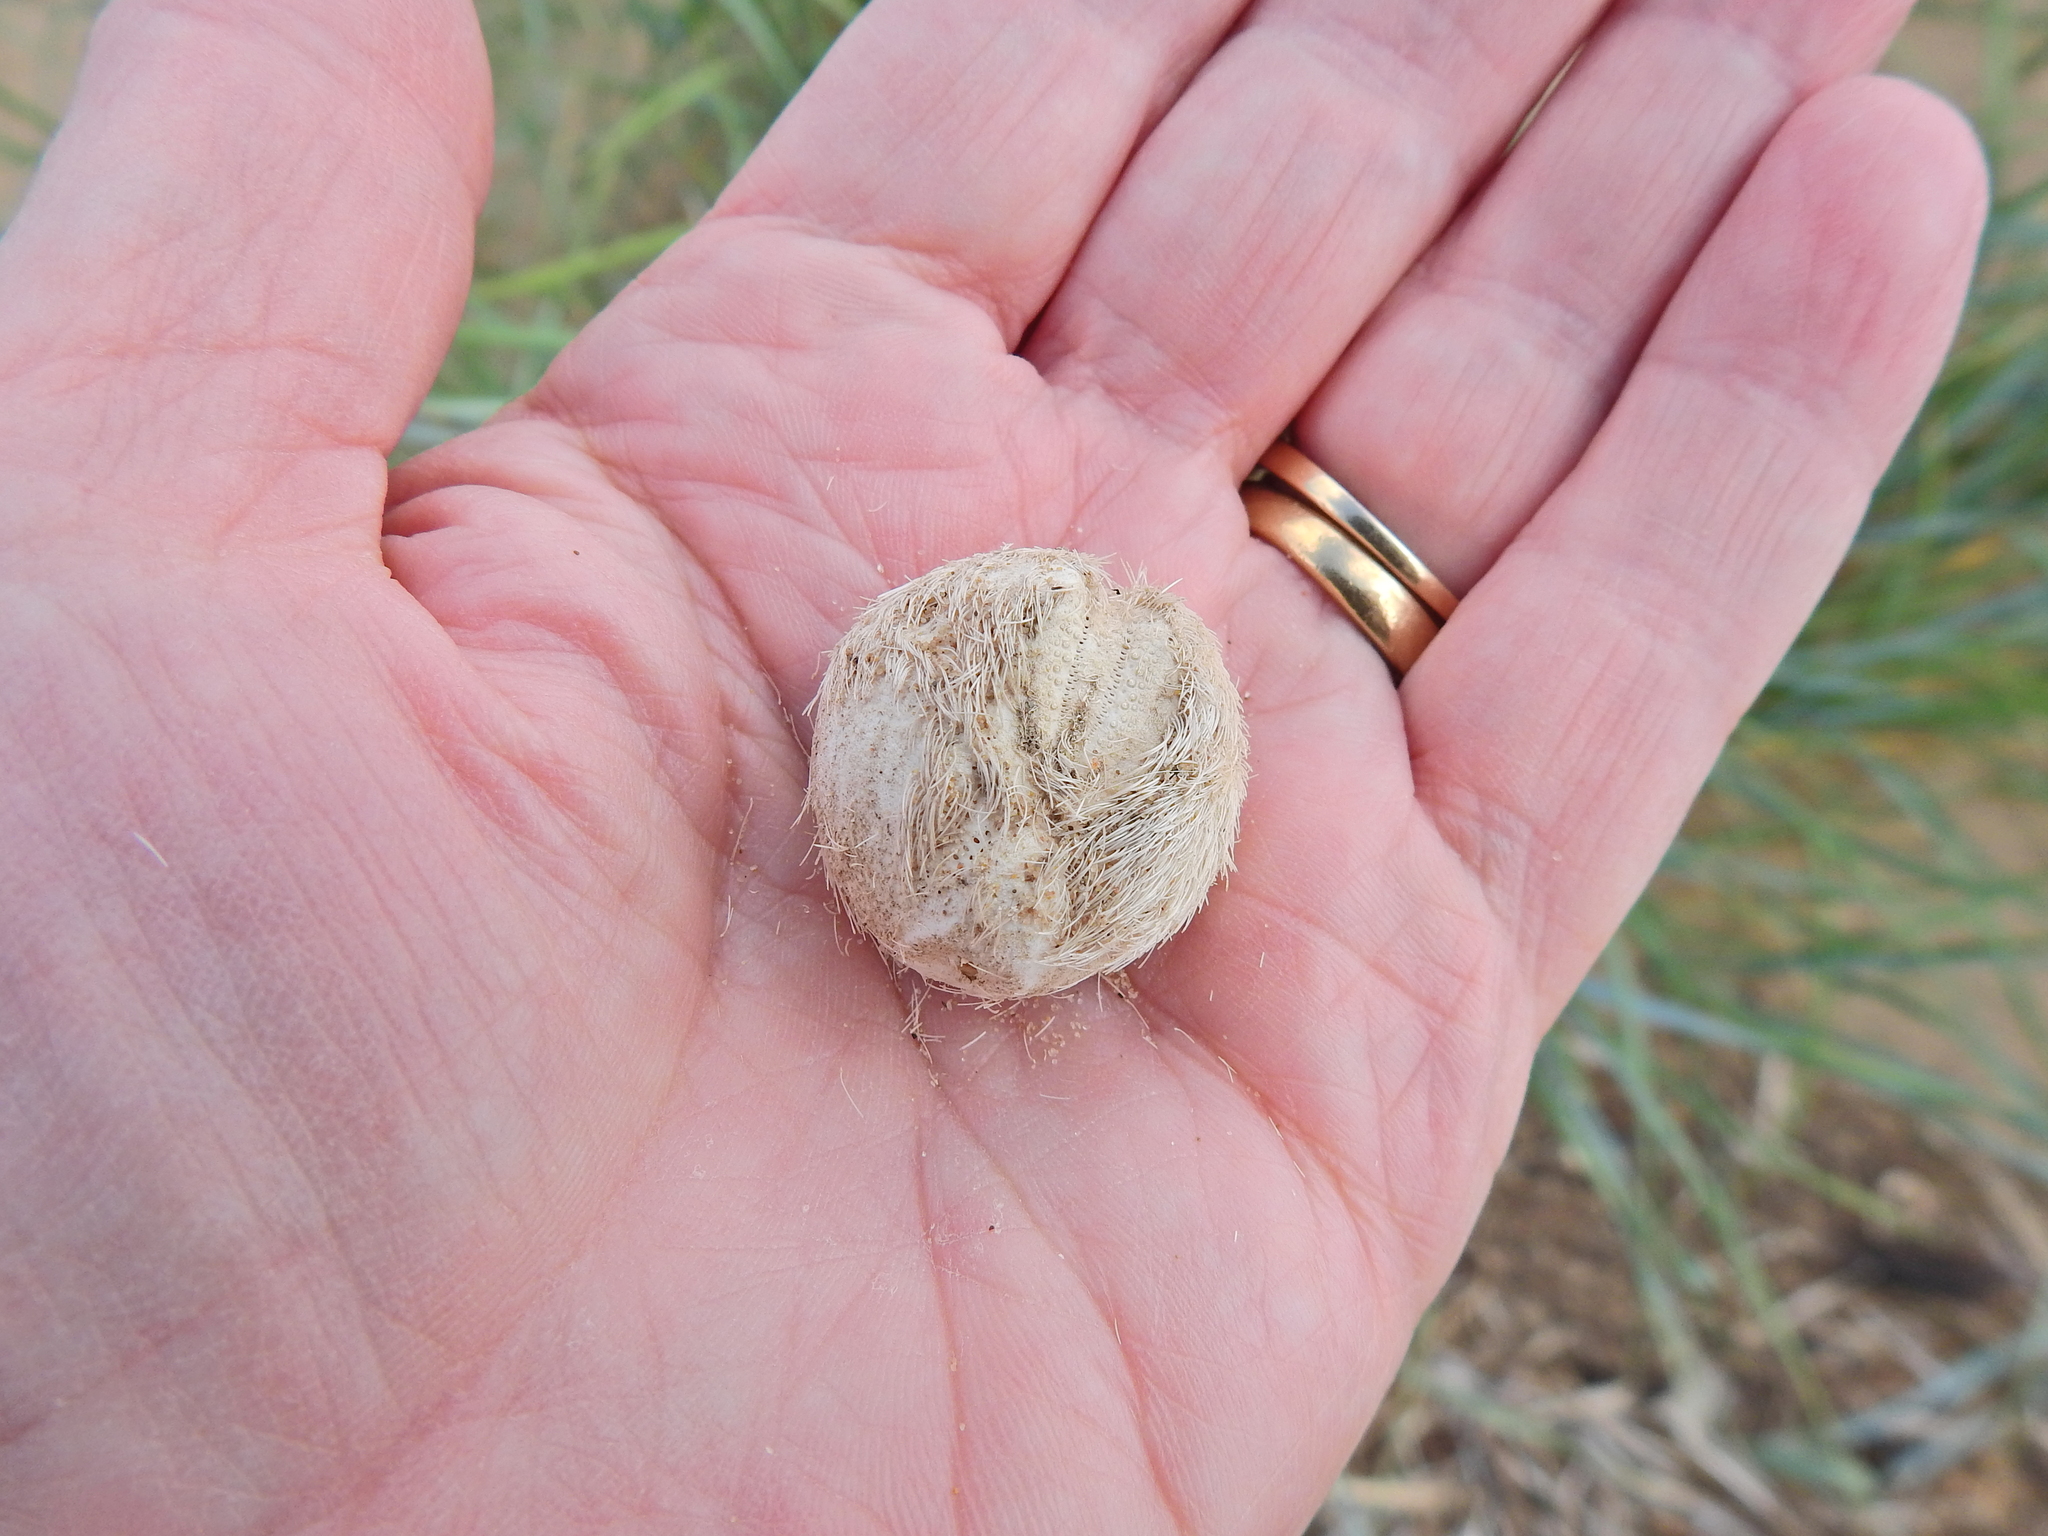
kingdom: Animalia
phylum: Echinodermata
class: Echinoidea
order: Spatangoida
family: Loveniidae
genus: Echinocardium
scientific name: Echinocardium cordatum
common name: Heart-urchin
